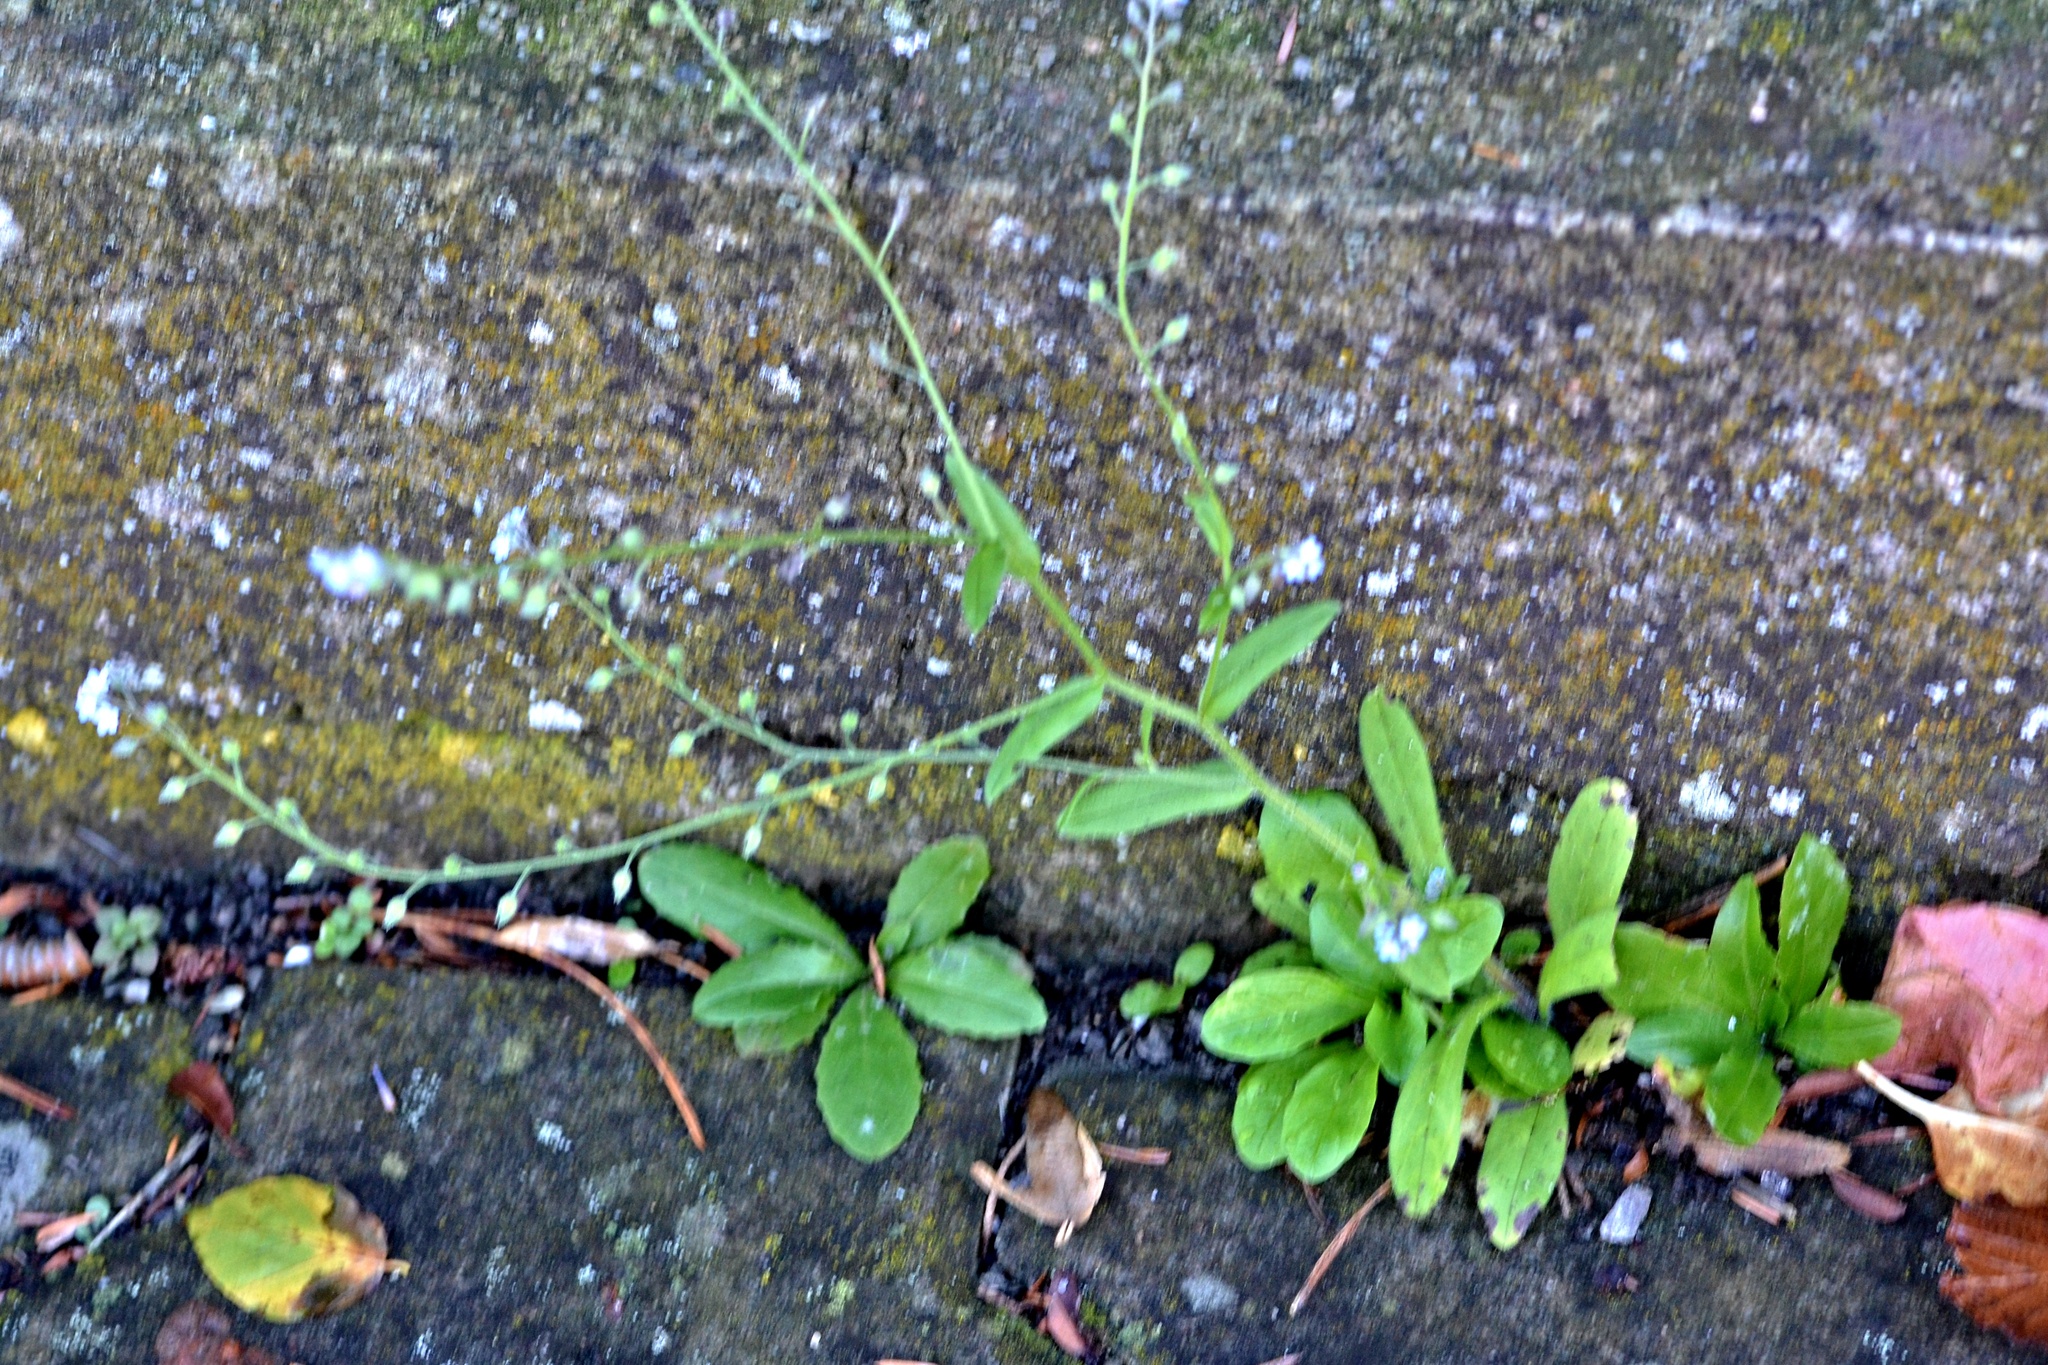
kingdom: Plantae
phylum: Tracheophyta
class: Magnoliopsida
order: Boraginales
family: Boraginaceae
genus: Myosotis
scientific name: Myosotis arvensis
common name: Field forget-me-not
